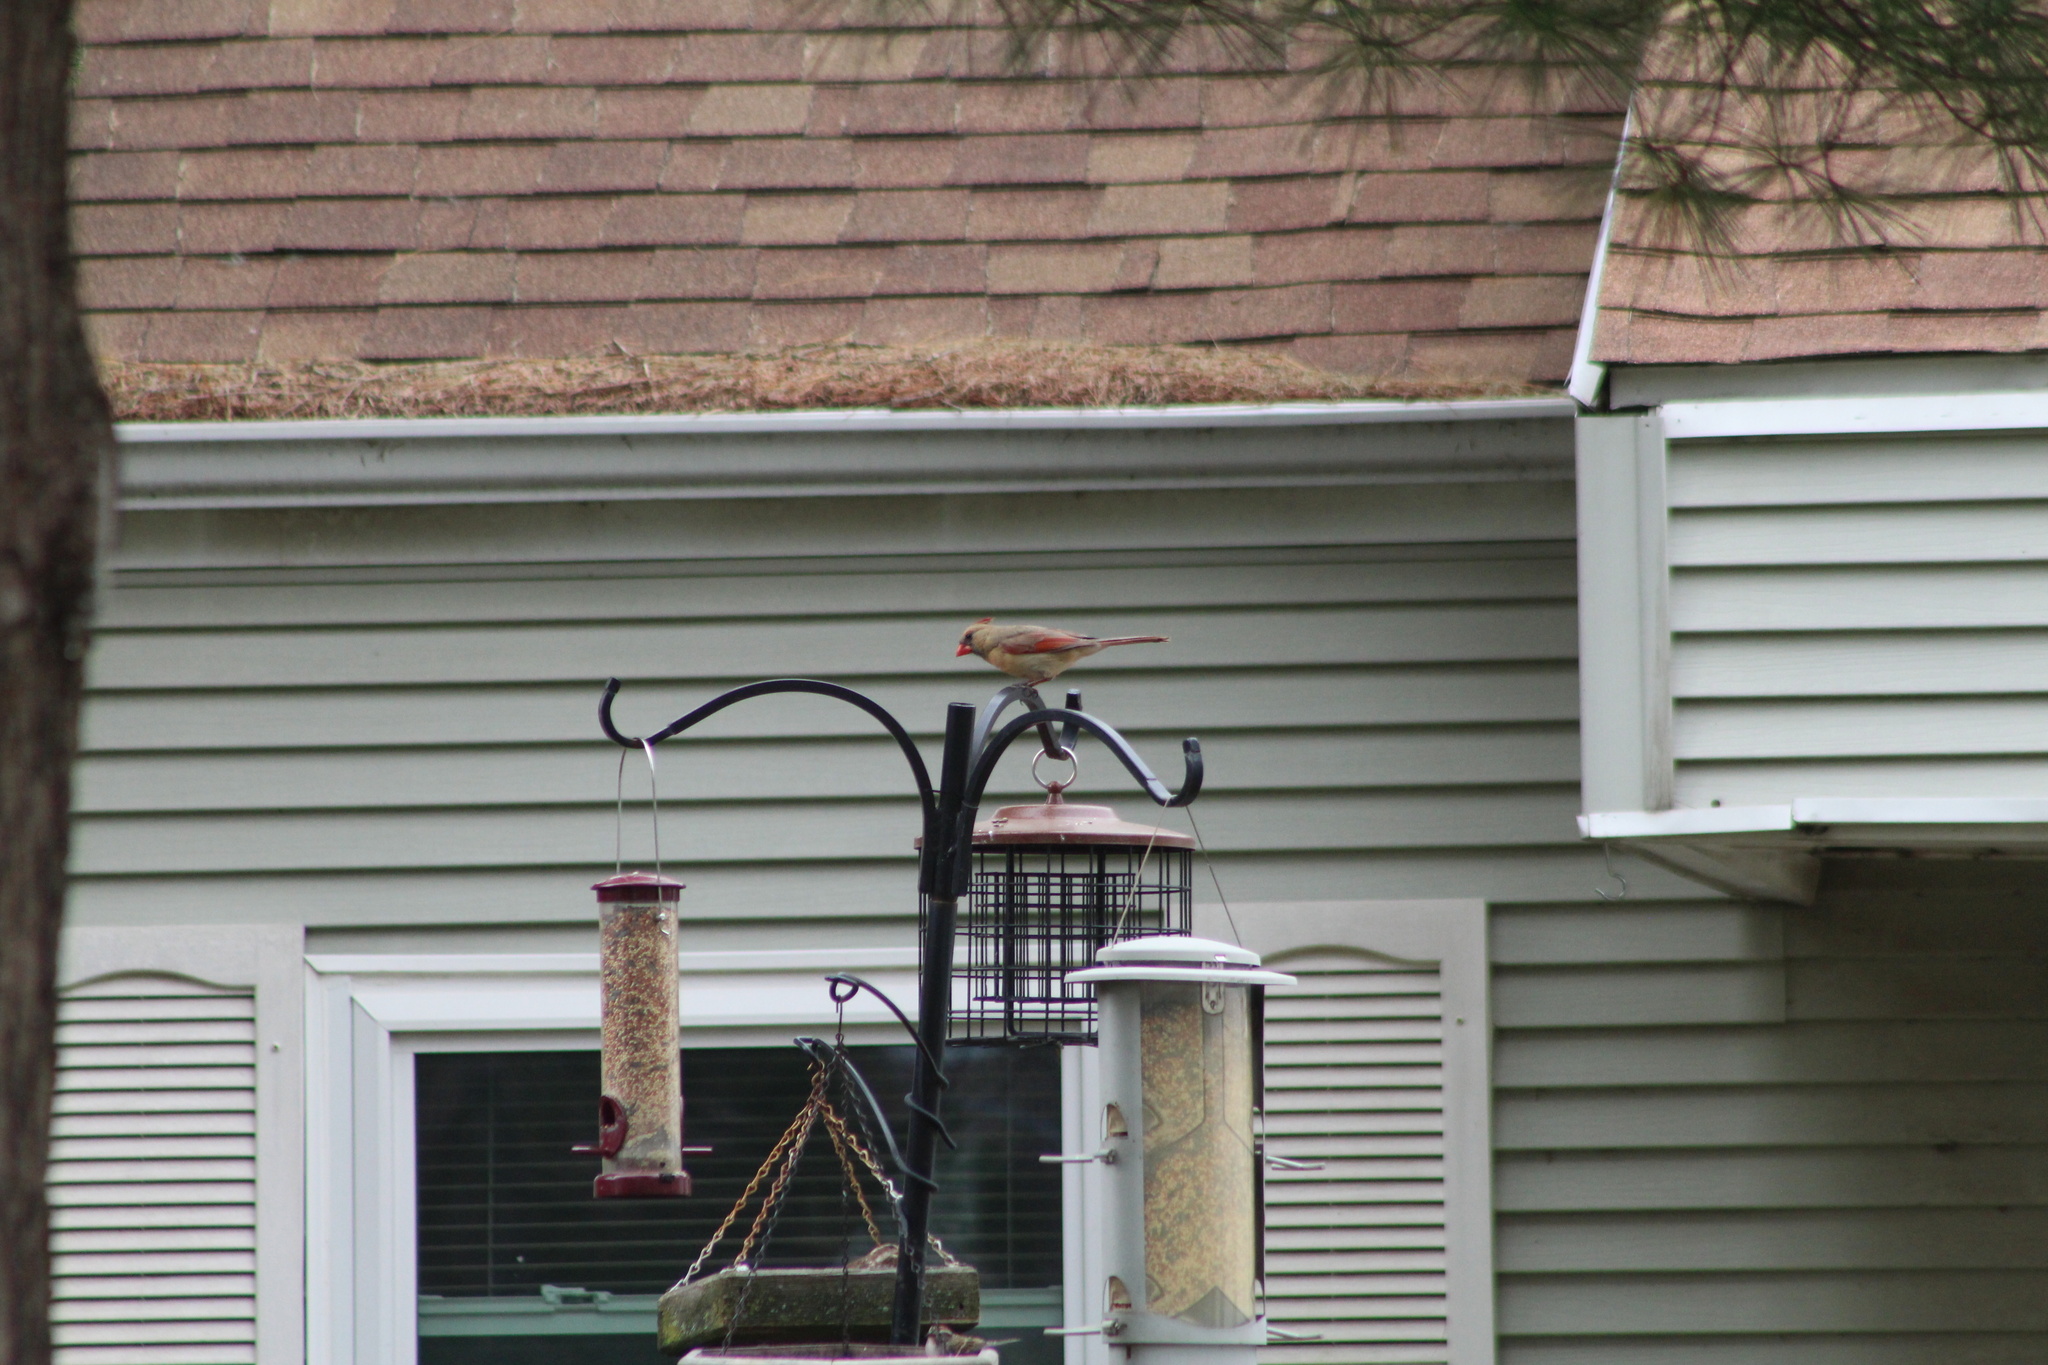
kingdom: Animalia
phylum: Chordata
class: Aves
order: Passeriformes
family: Cardinalidae
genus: Cardinalis
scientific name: Cardinalis cardinalis
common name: Northern cardinal
